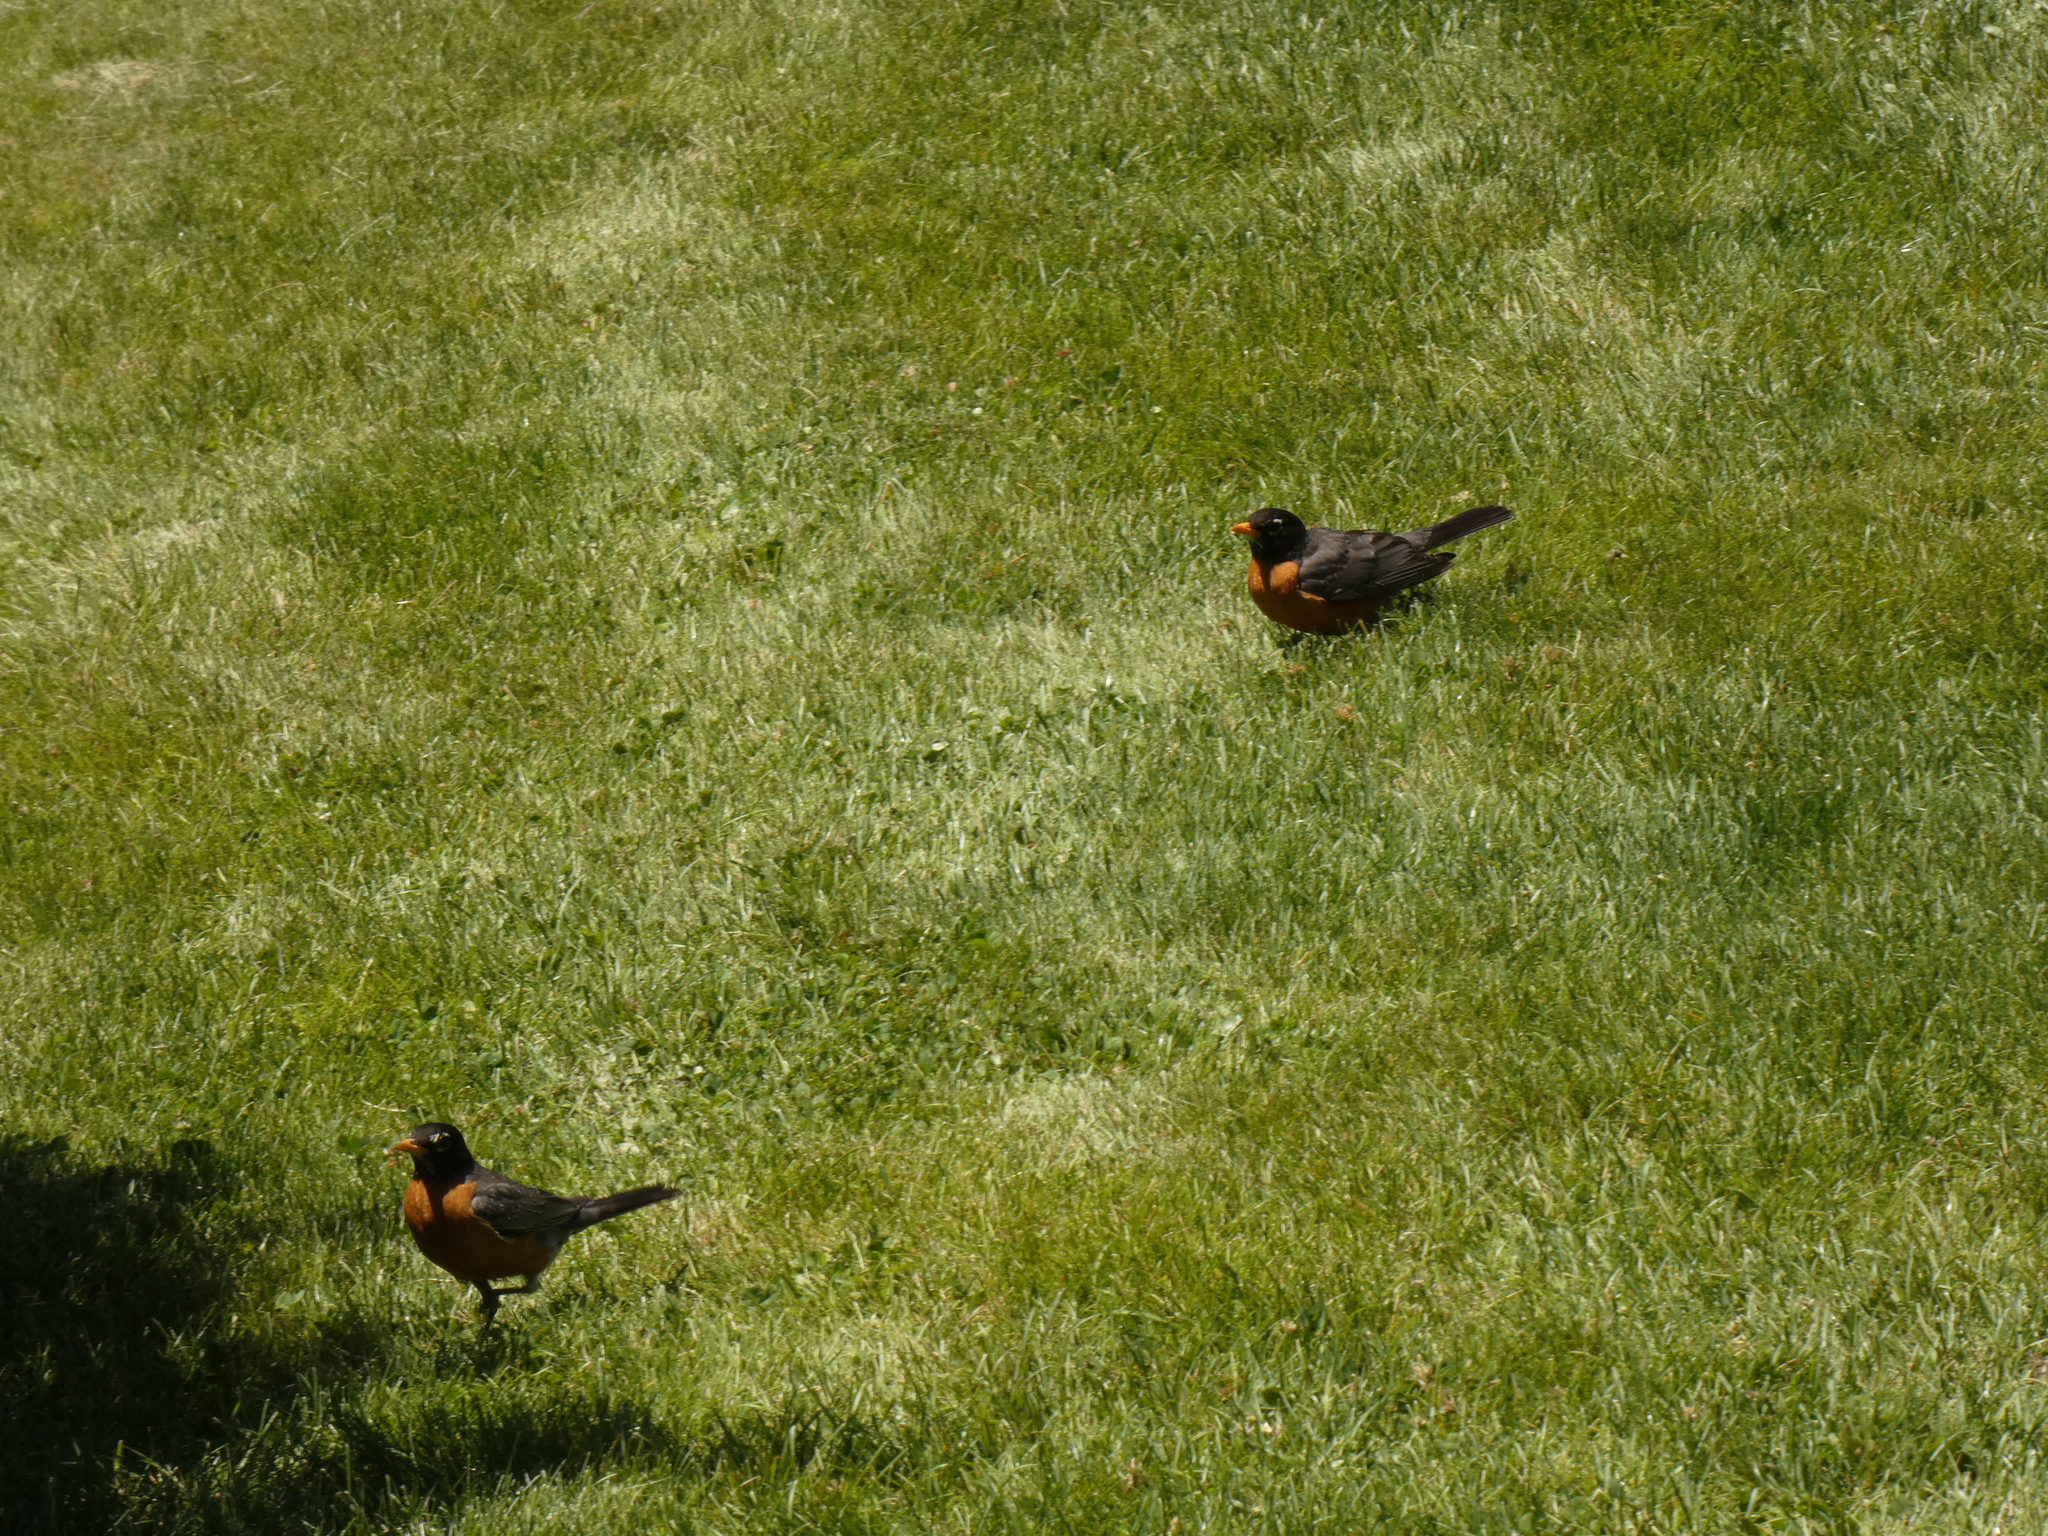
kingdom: Animalia
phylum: Chordata
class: Aves
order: Passeriformes
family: Turdidae
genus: Turdus
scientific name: Turdus migratorius
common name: American robin
